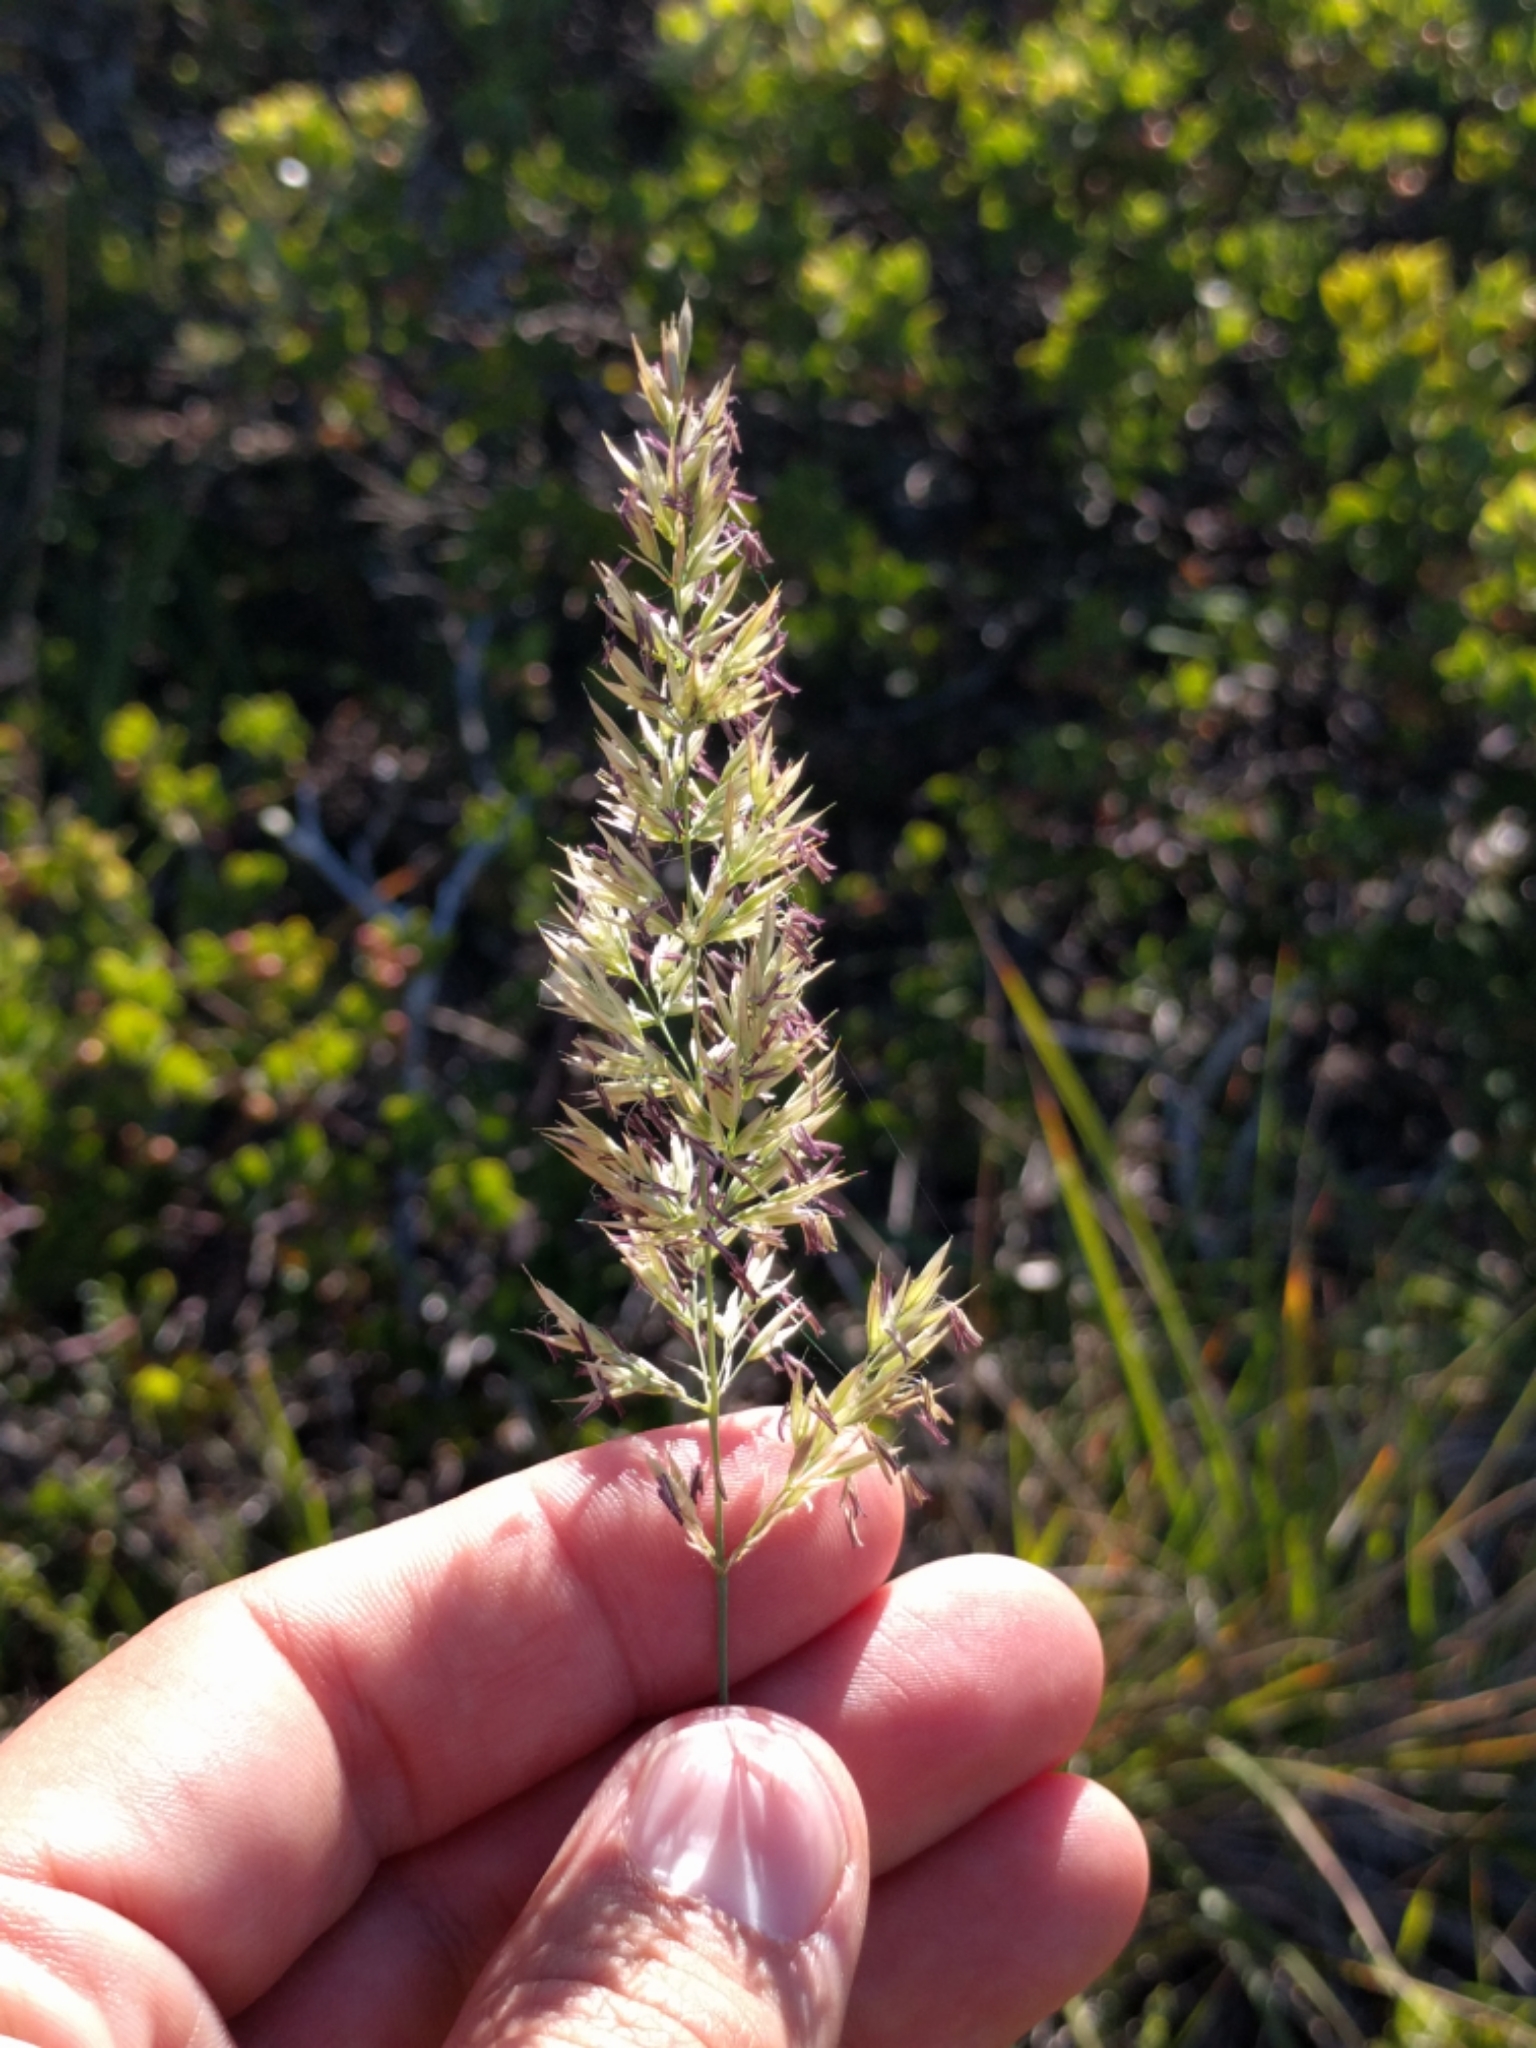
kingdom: Plantae
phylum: Tracheophyta
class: Liliopsida
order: Poales
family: Poaceae
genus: Calamagrostis
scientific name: Calamagrostis ophitidis
